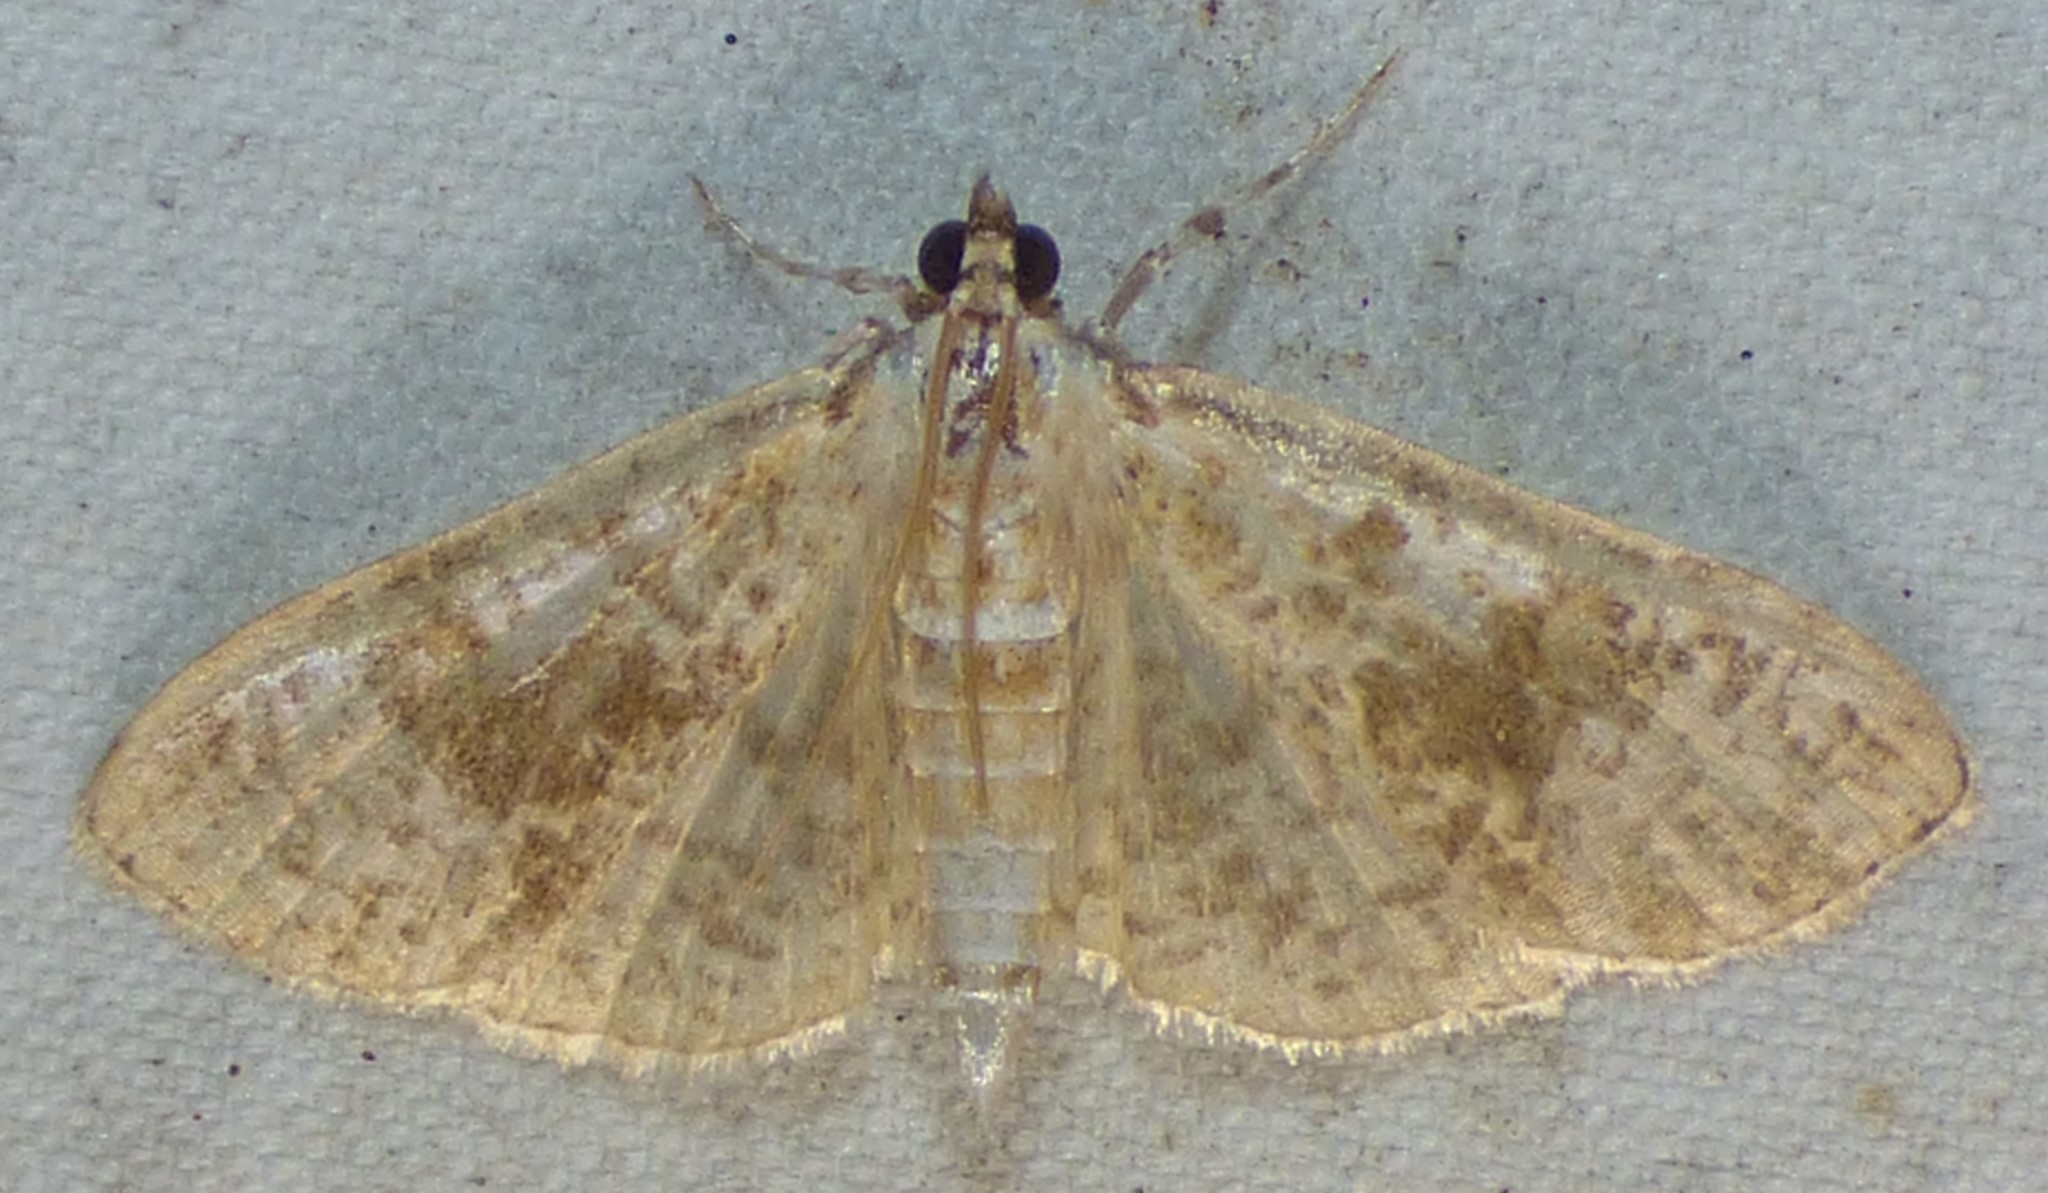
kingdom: Animalia
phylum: Arthropoda
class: Insecta
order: Lepidoptera
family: Crambidae
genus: Palpita
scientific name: Palpita freemanalis
